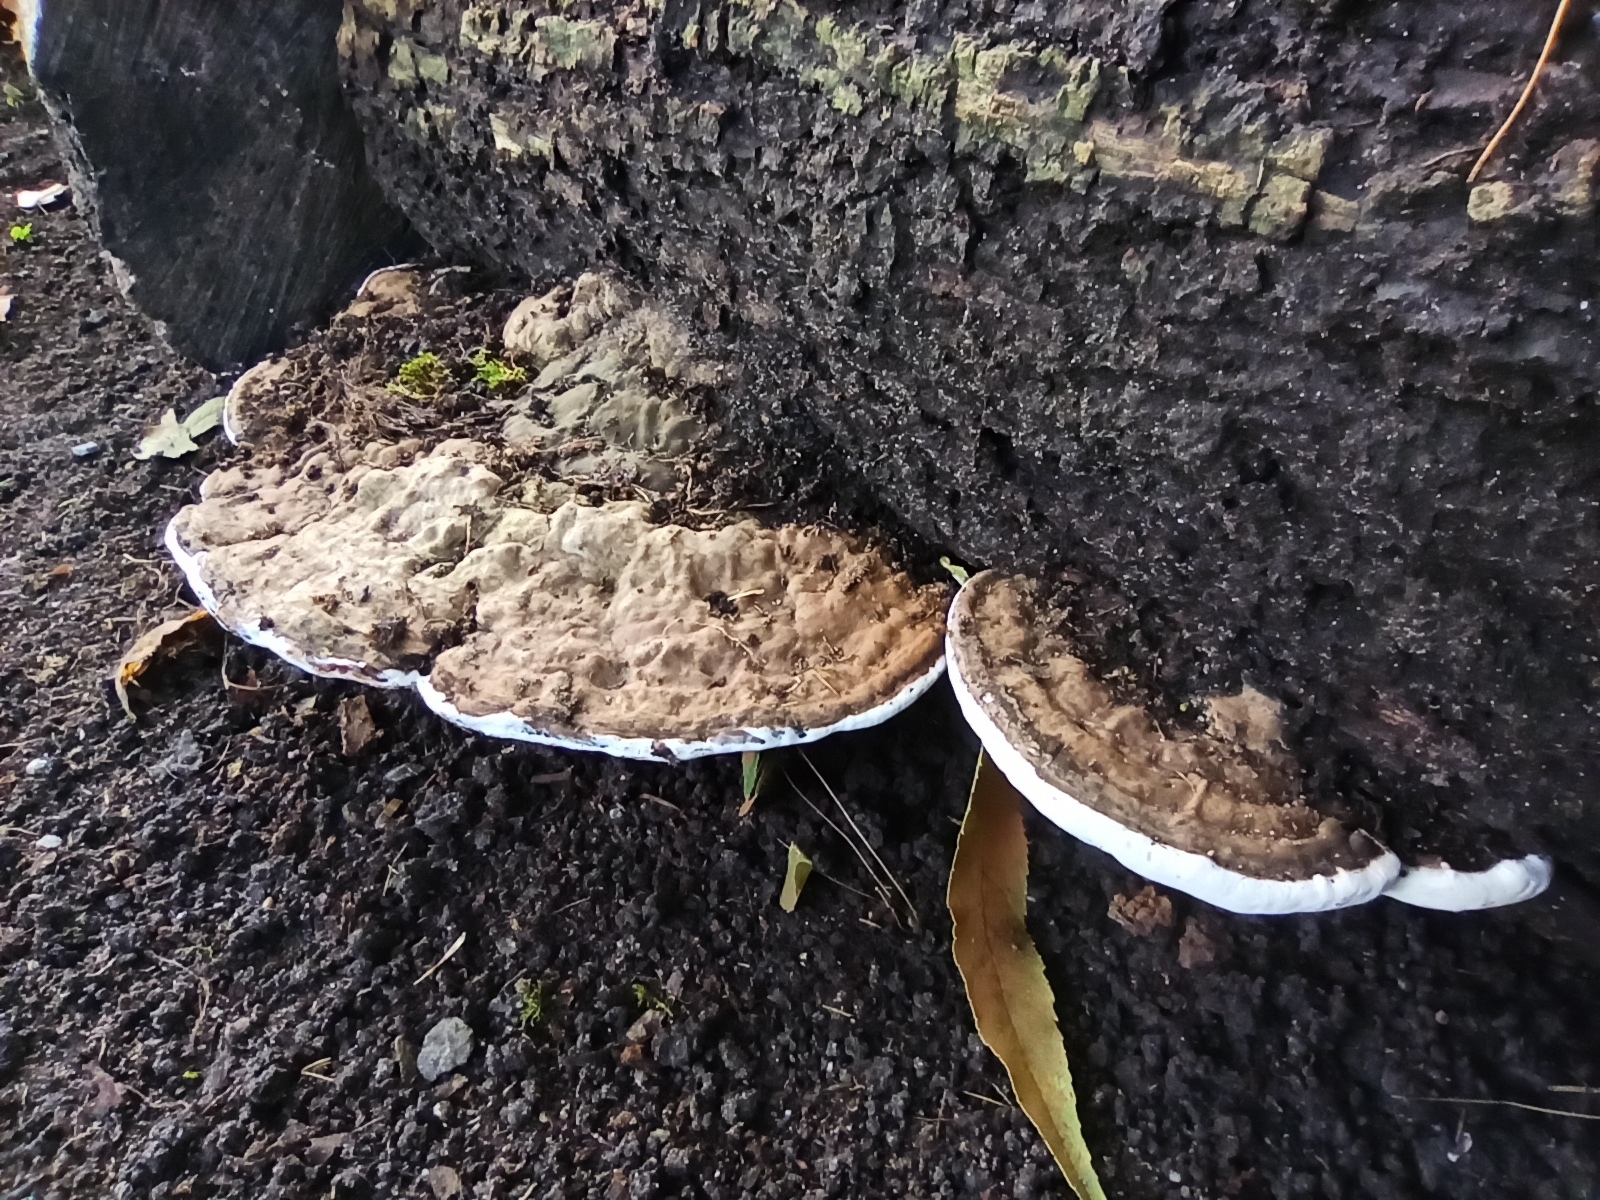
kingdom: Fungi
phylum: Basidiomycota
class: Agaricomycetes
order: Polyporales
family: Polyporaceae
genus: Ganoderma
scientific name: Ganoderma applanatum
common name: Artist's bracket
